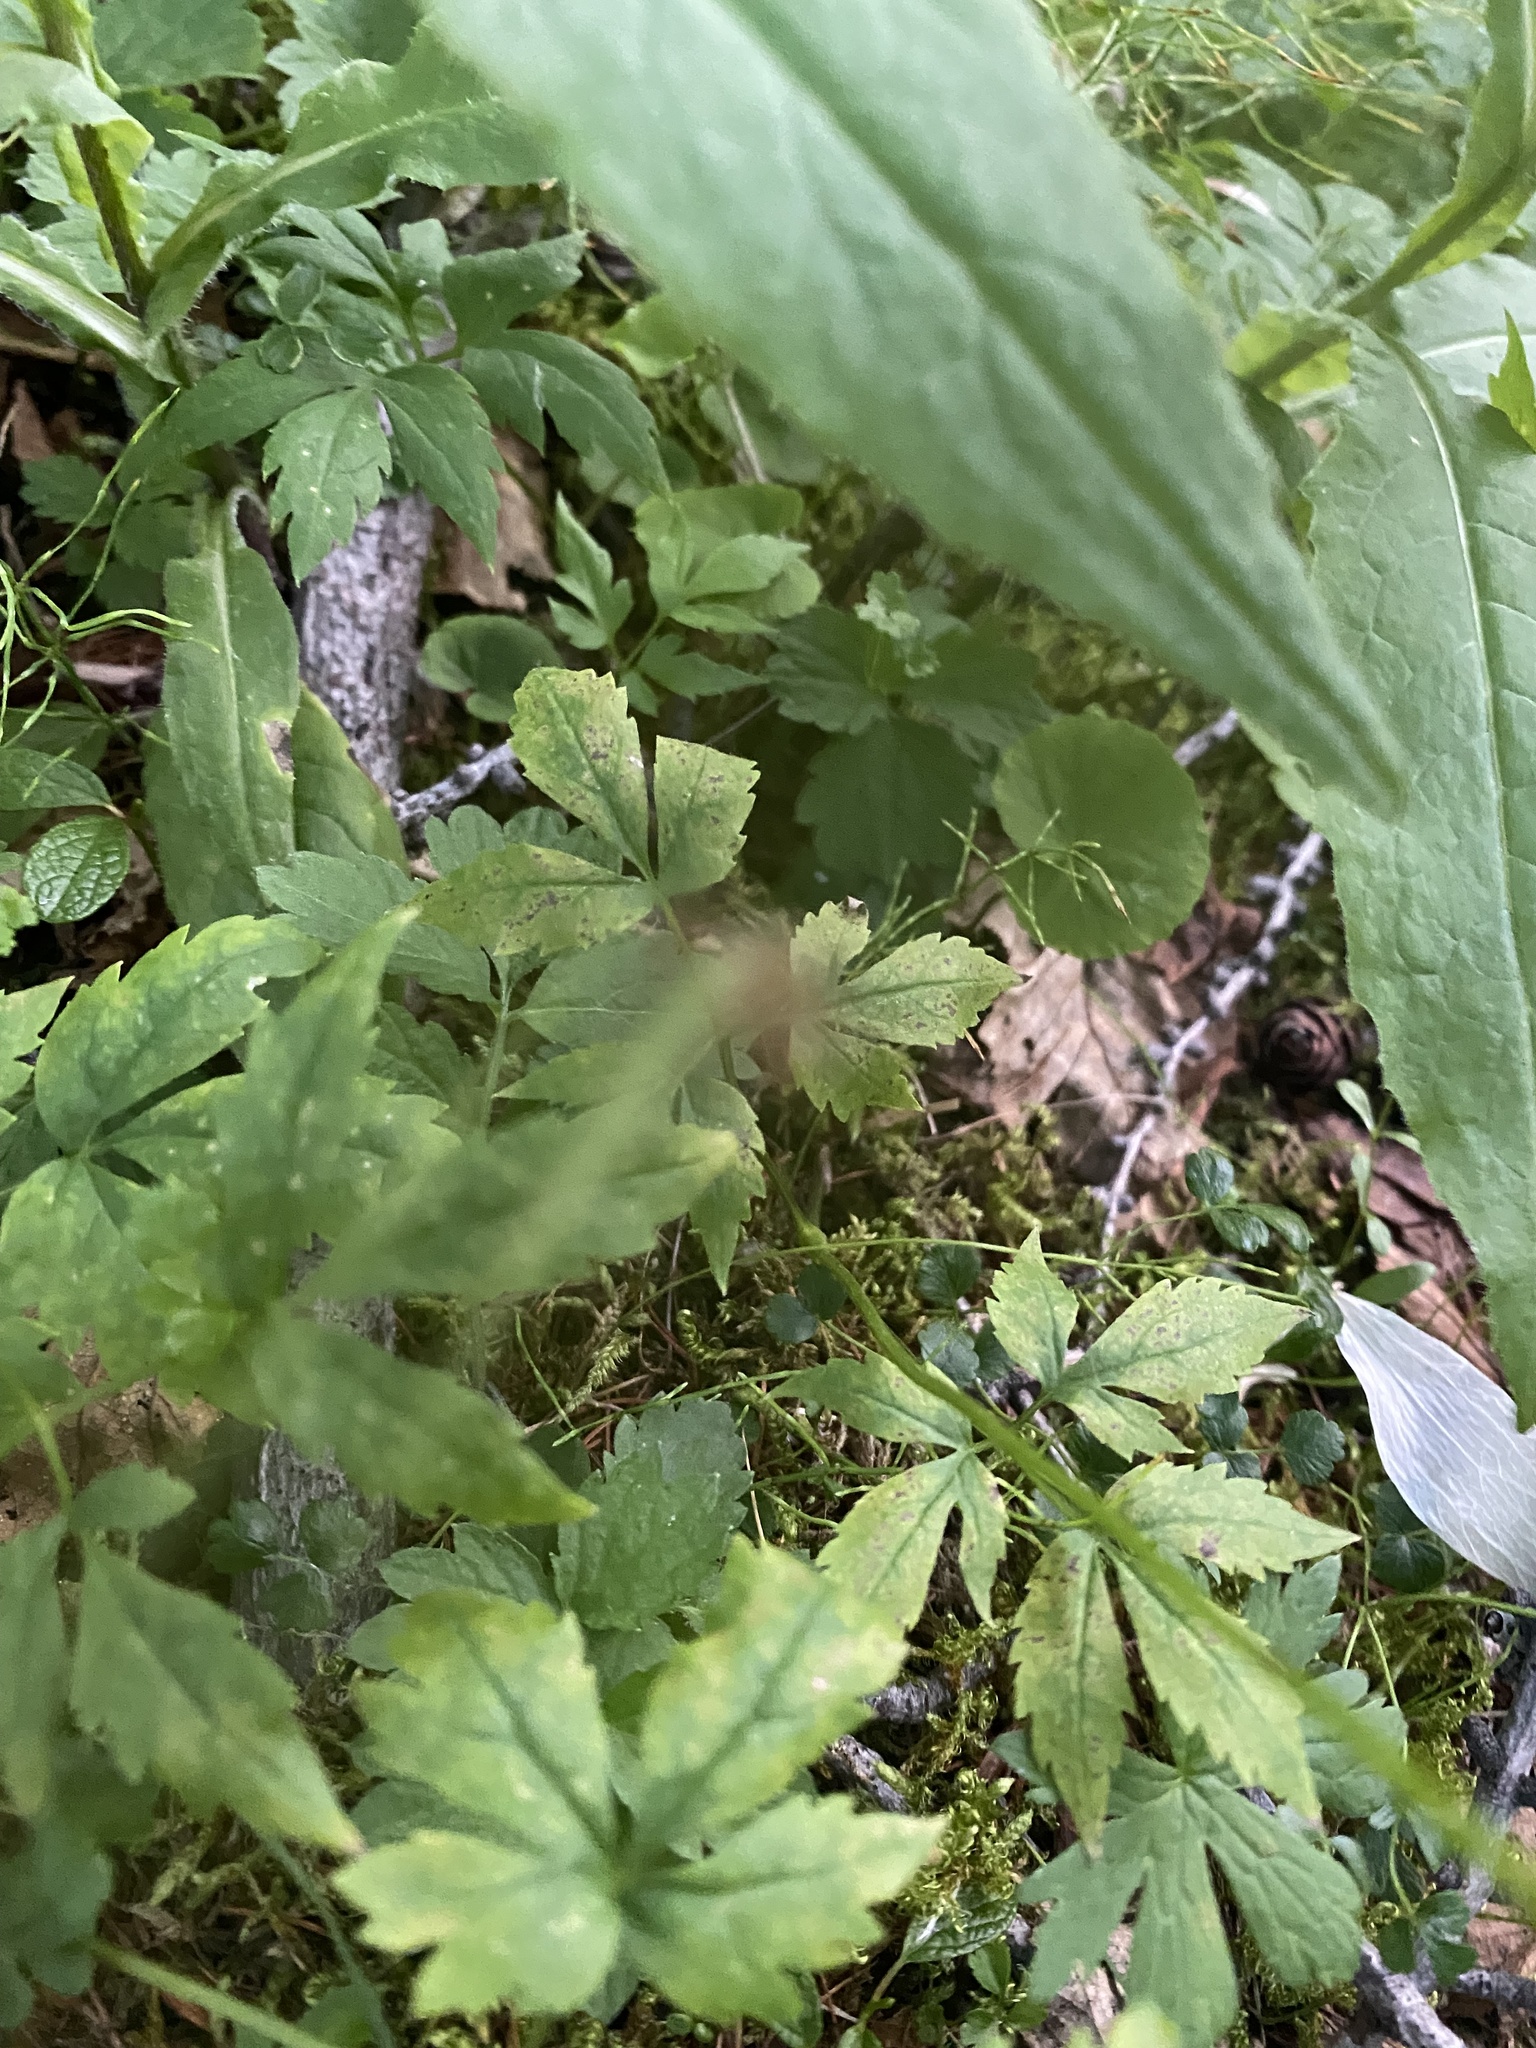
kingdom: Plantae
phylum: Tracheophyta
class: Magnoliopsida
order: Ranunculales
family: Ranunculaceae
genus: Clematis
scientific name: Clematis sibirica
